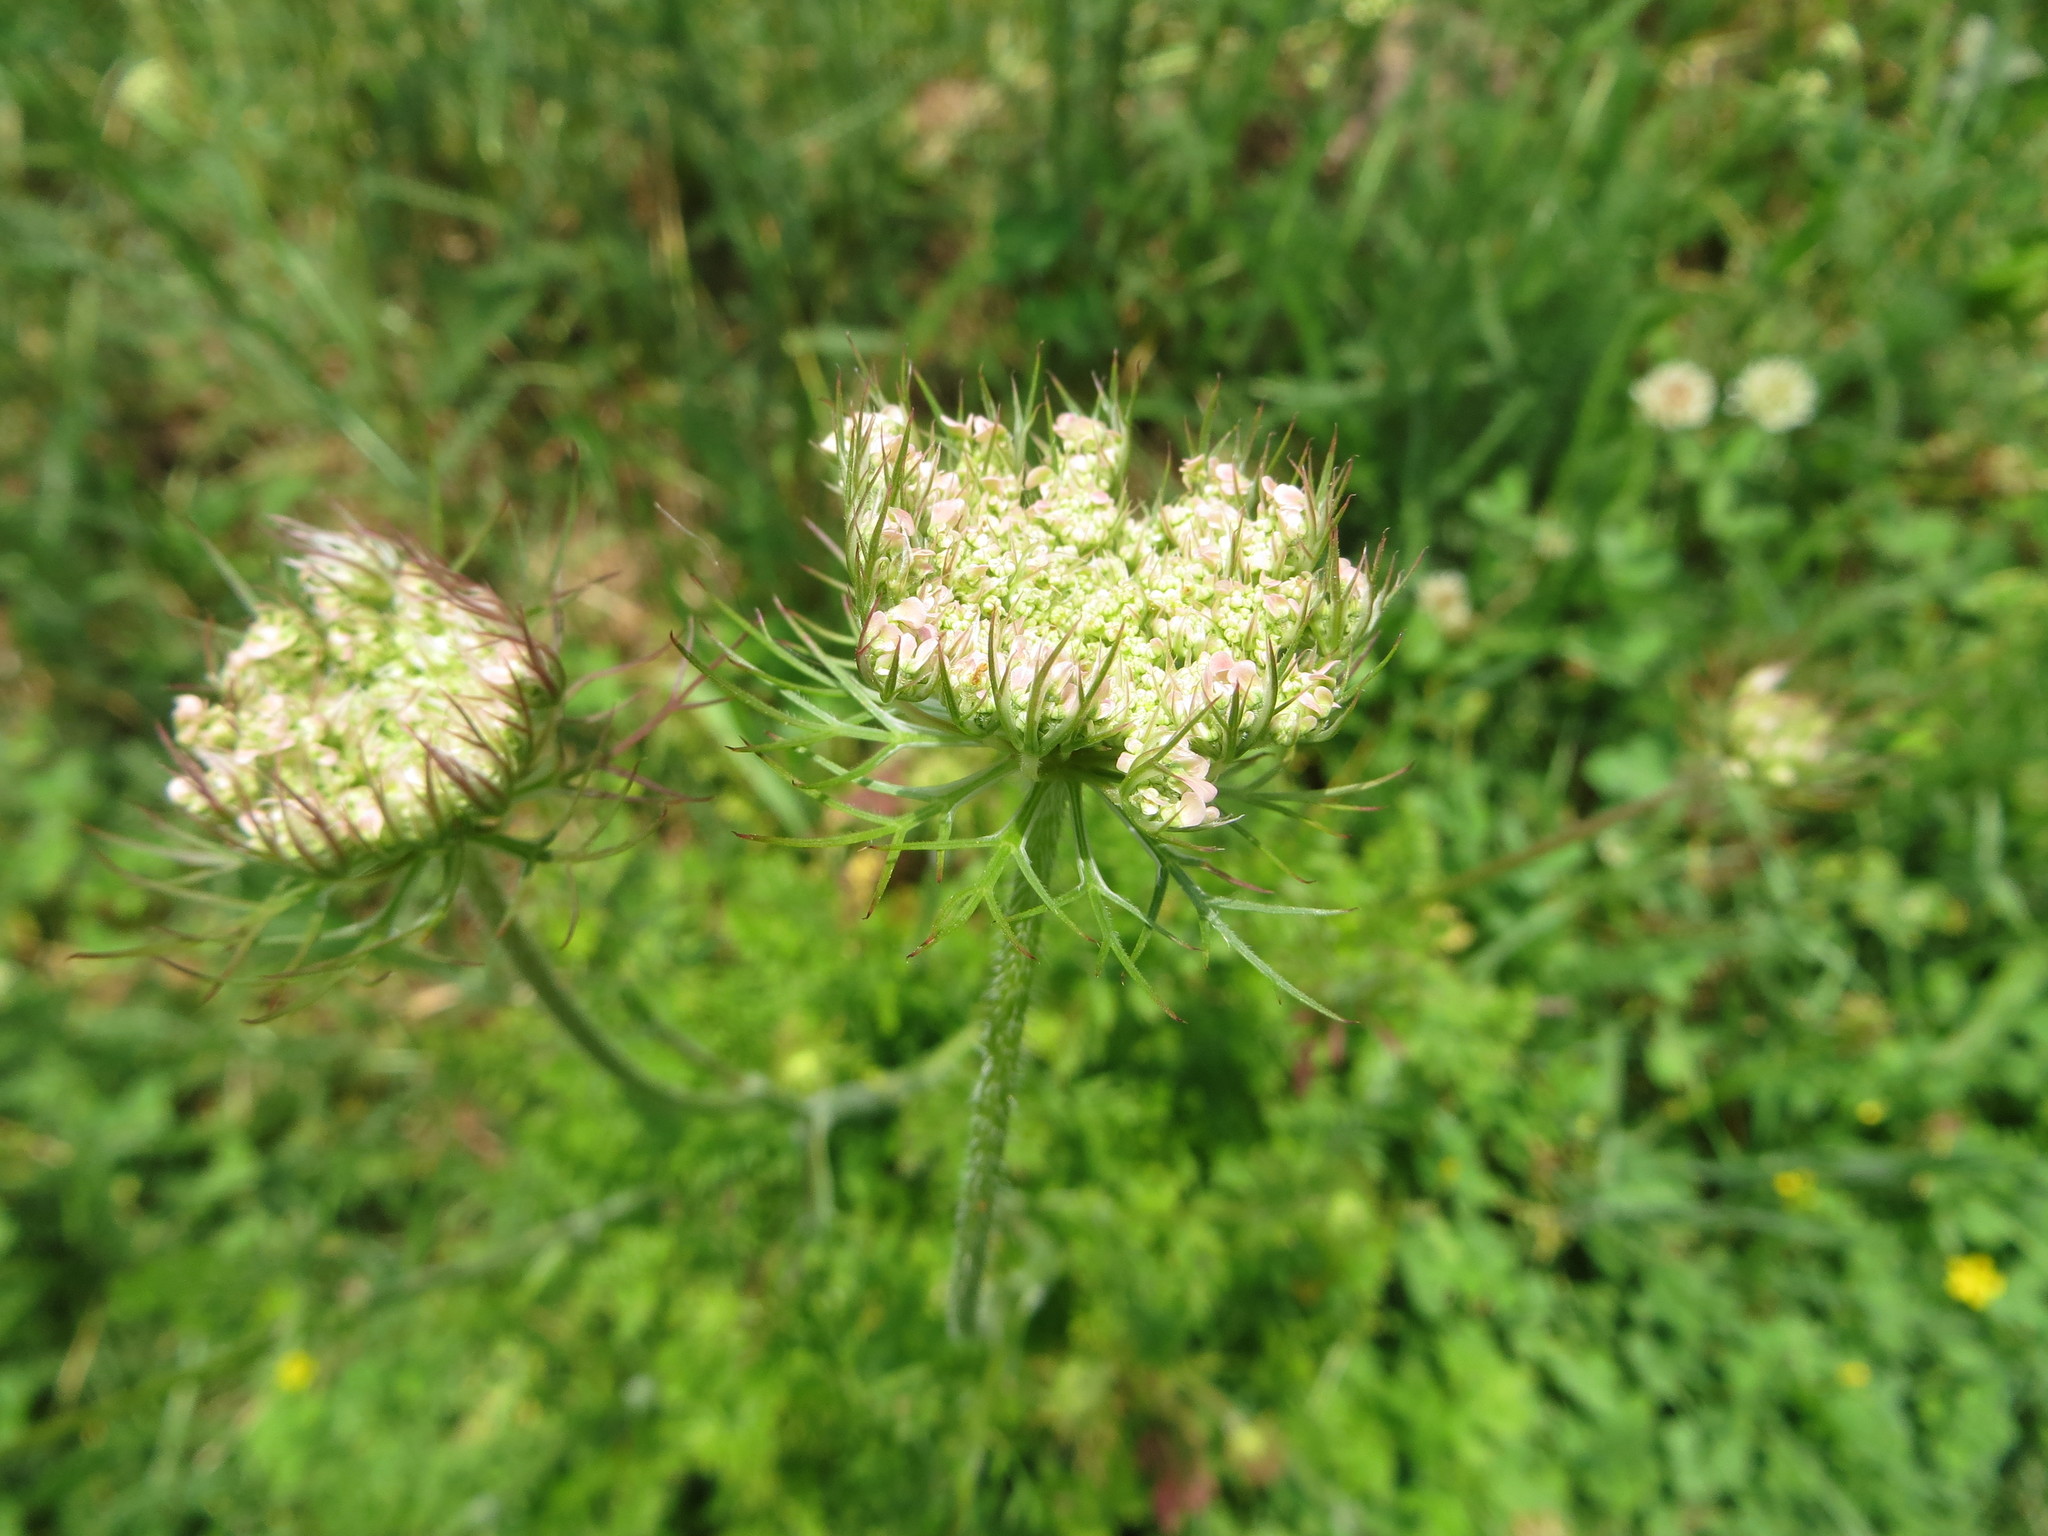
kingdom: Plantae
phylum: Tracheophyta
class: Magnoliopsida
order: Apiales
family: Apiaceae
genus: Daucus
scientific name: Daucus carota
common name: Wild carrot
